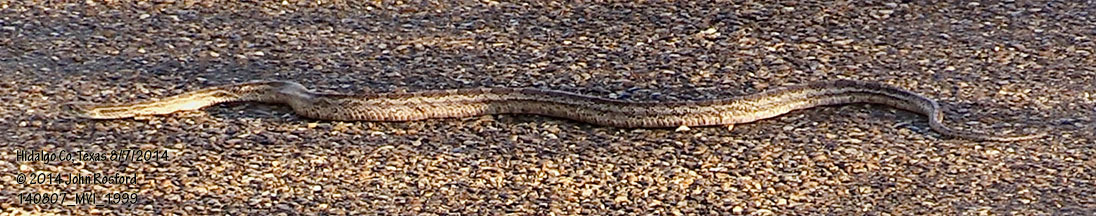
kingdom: Animalia
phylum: Chordata
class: Squamata
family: Colubridae
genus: Pantherophis
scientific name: Pantherophis emoryi
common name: Great plains rat snake
